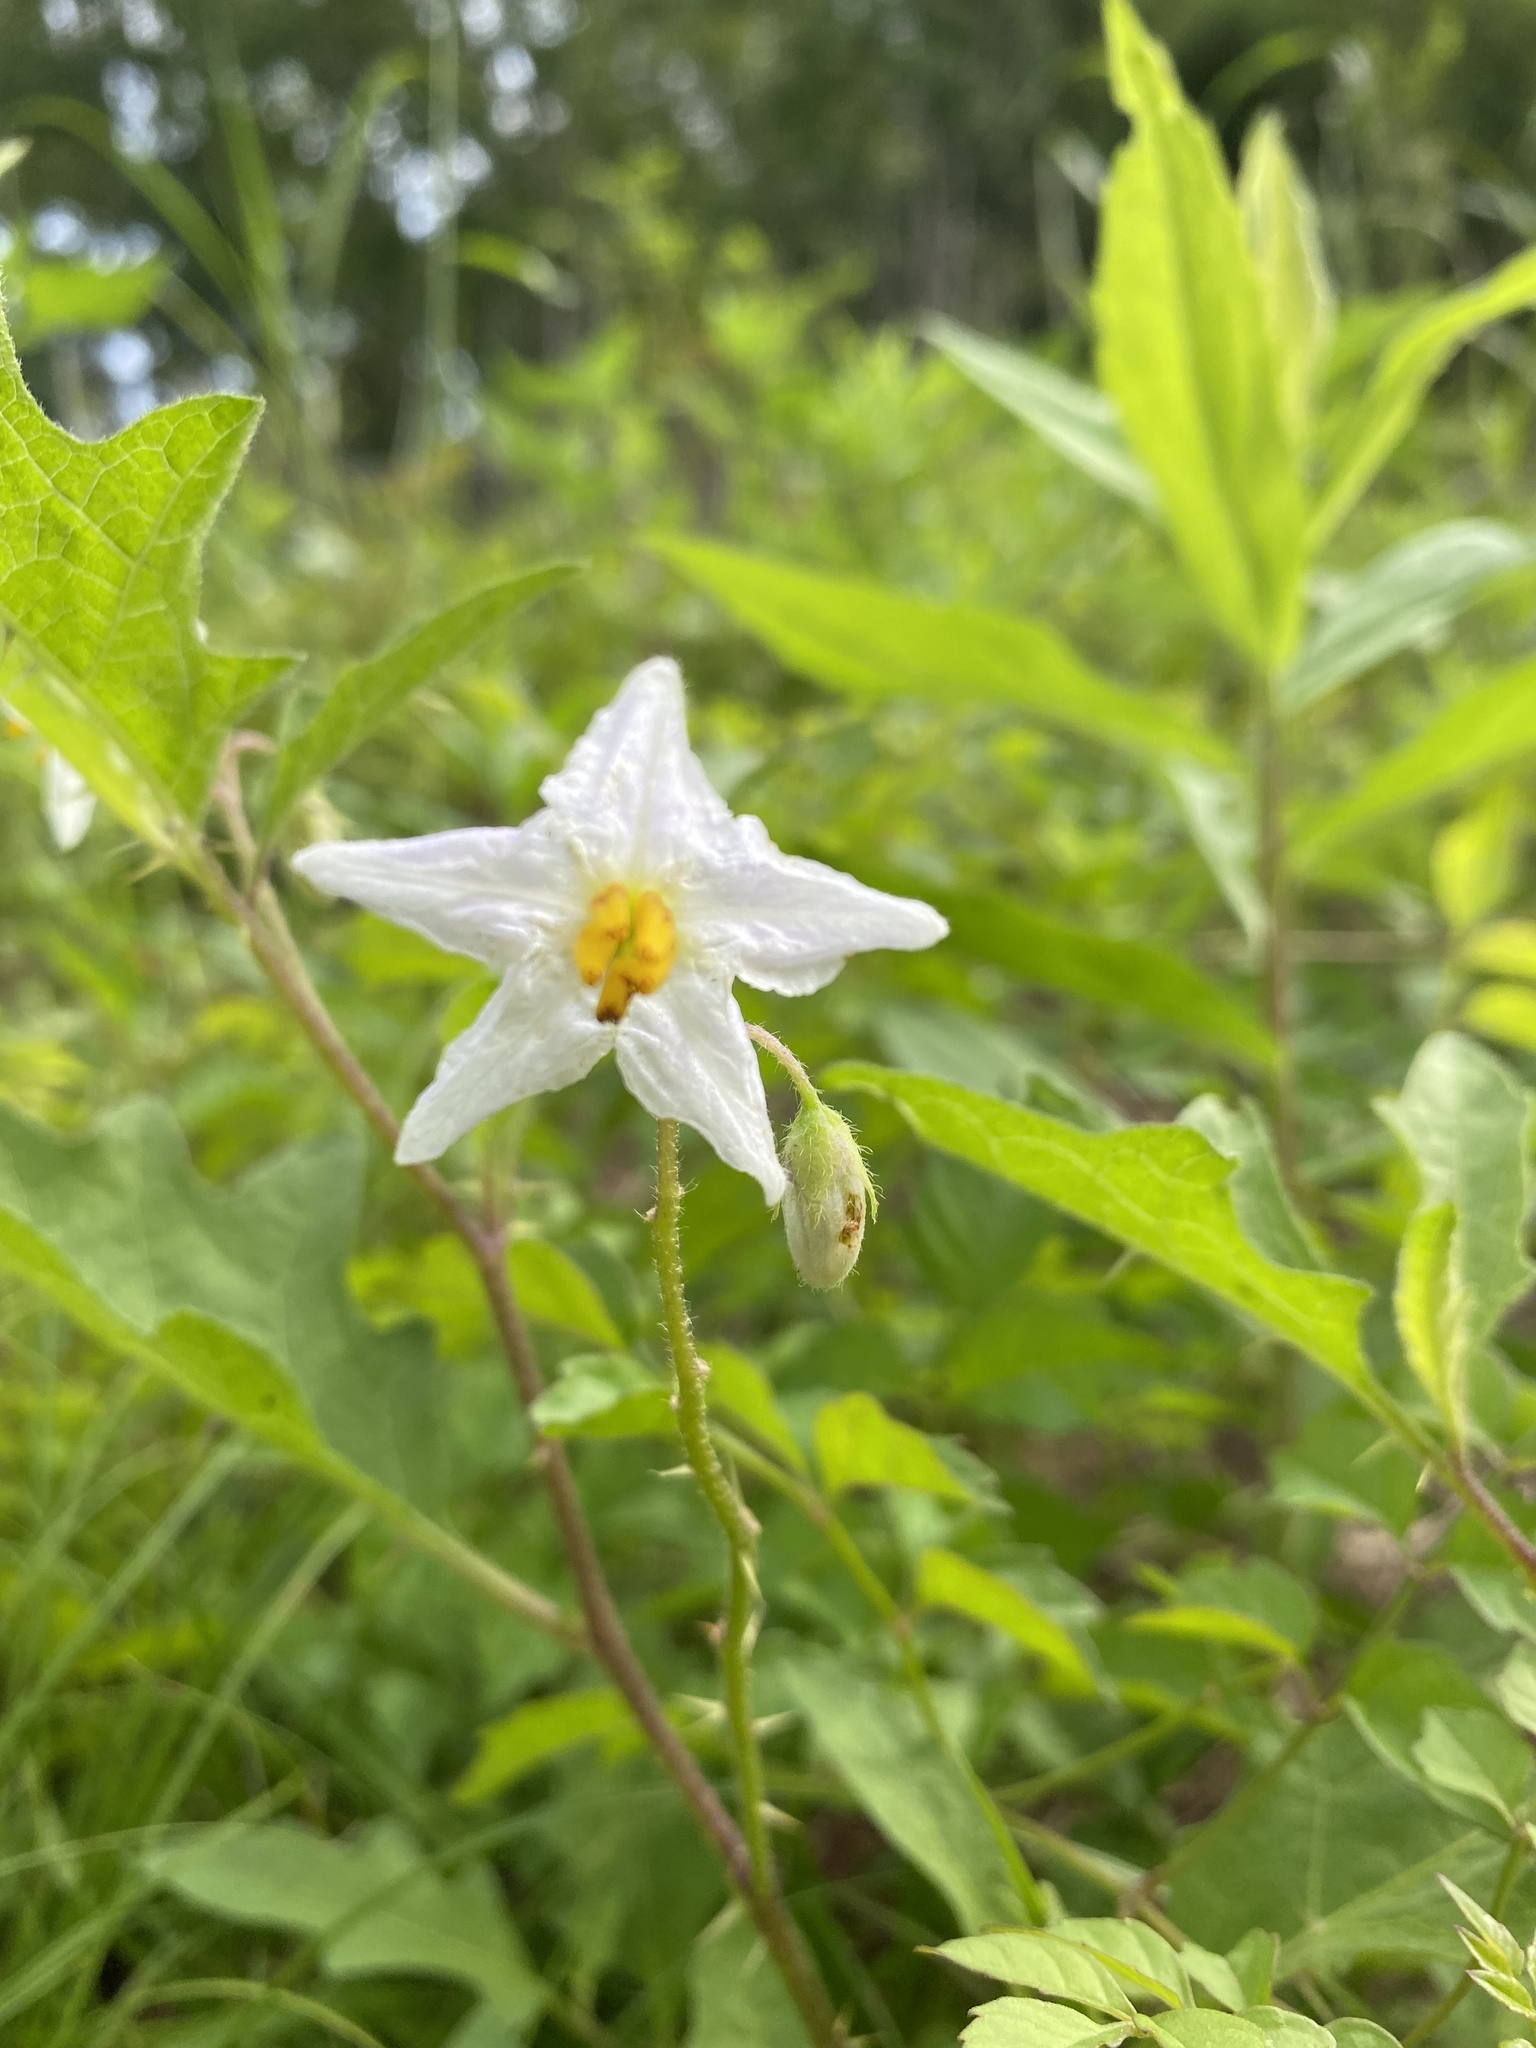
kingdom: Plantae
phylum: Tracheophyta
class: Magnoliopsida
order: Solanales
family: Solanaceae
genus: Solanum
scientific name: Solanum carolinense
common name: Horse-nettle
